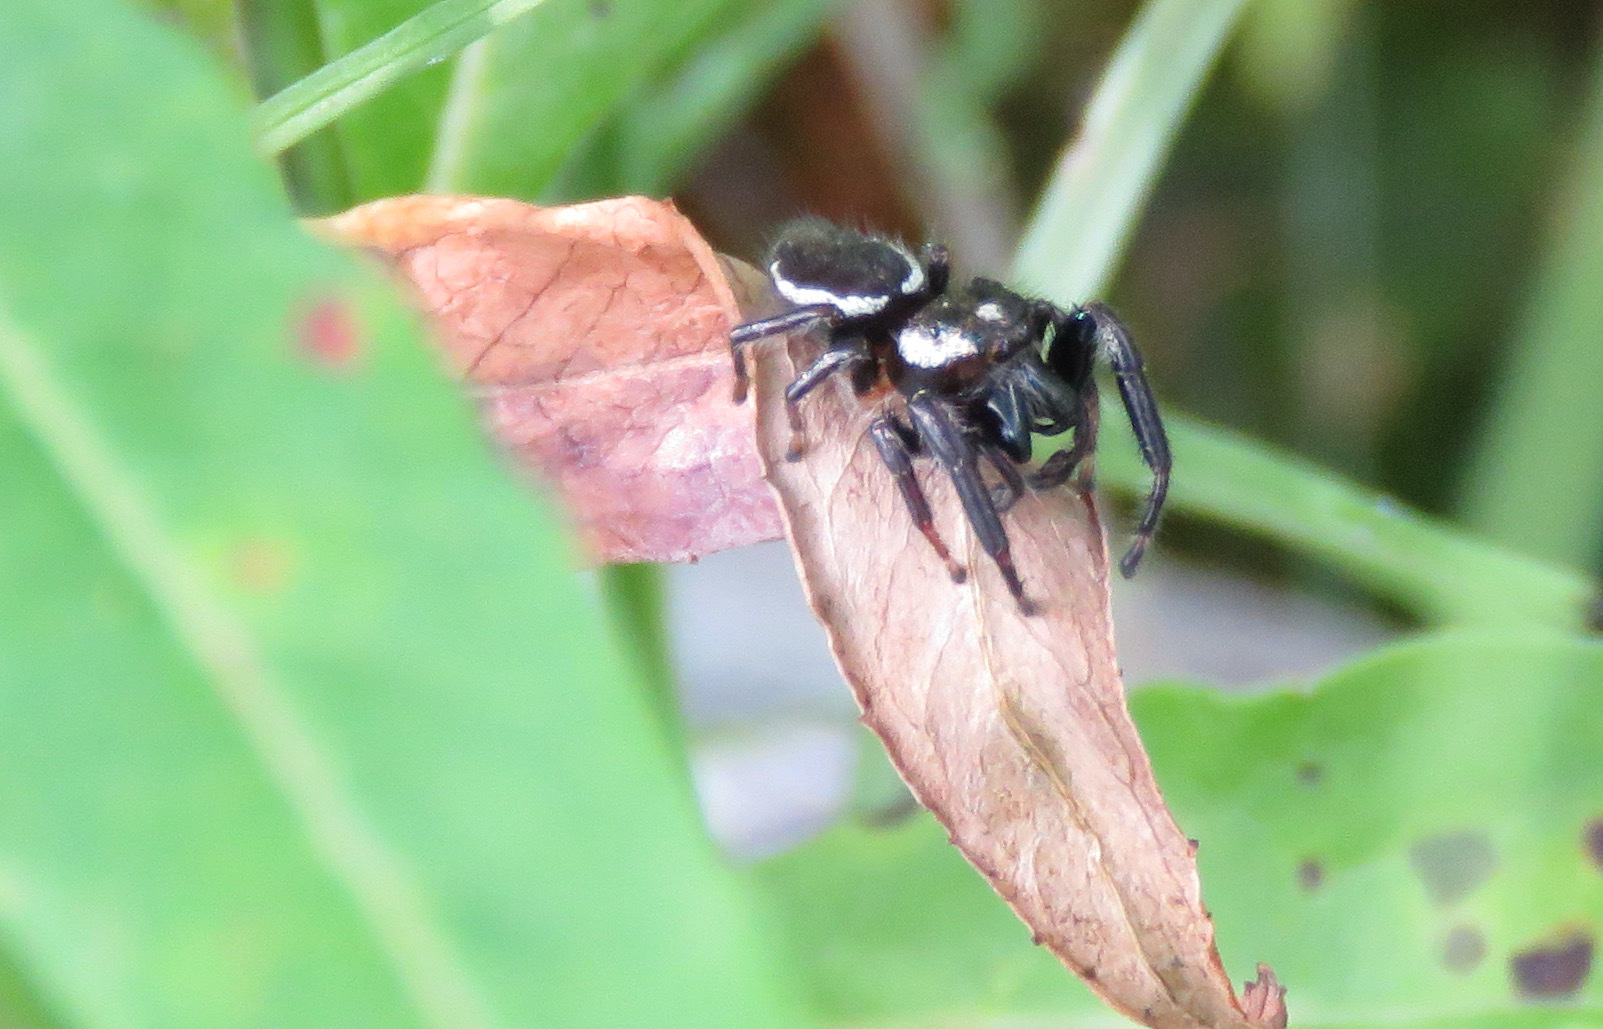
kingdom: Animalia
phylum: Arthropoda
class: Arachnida
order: Araneae
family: Salticidae
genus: Eris
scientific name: Eris militaris
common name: Bronze jumper
